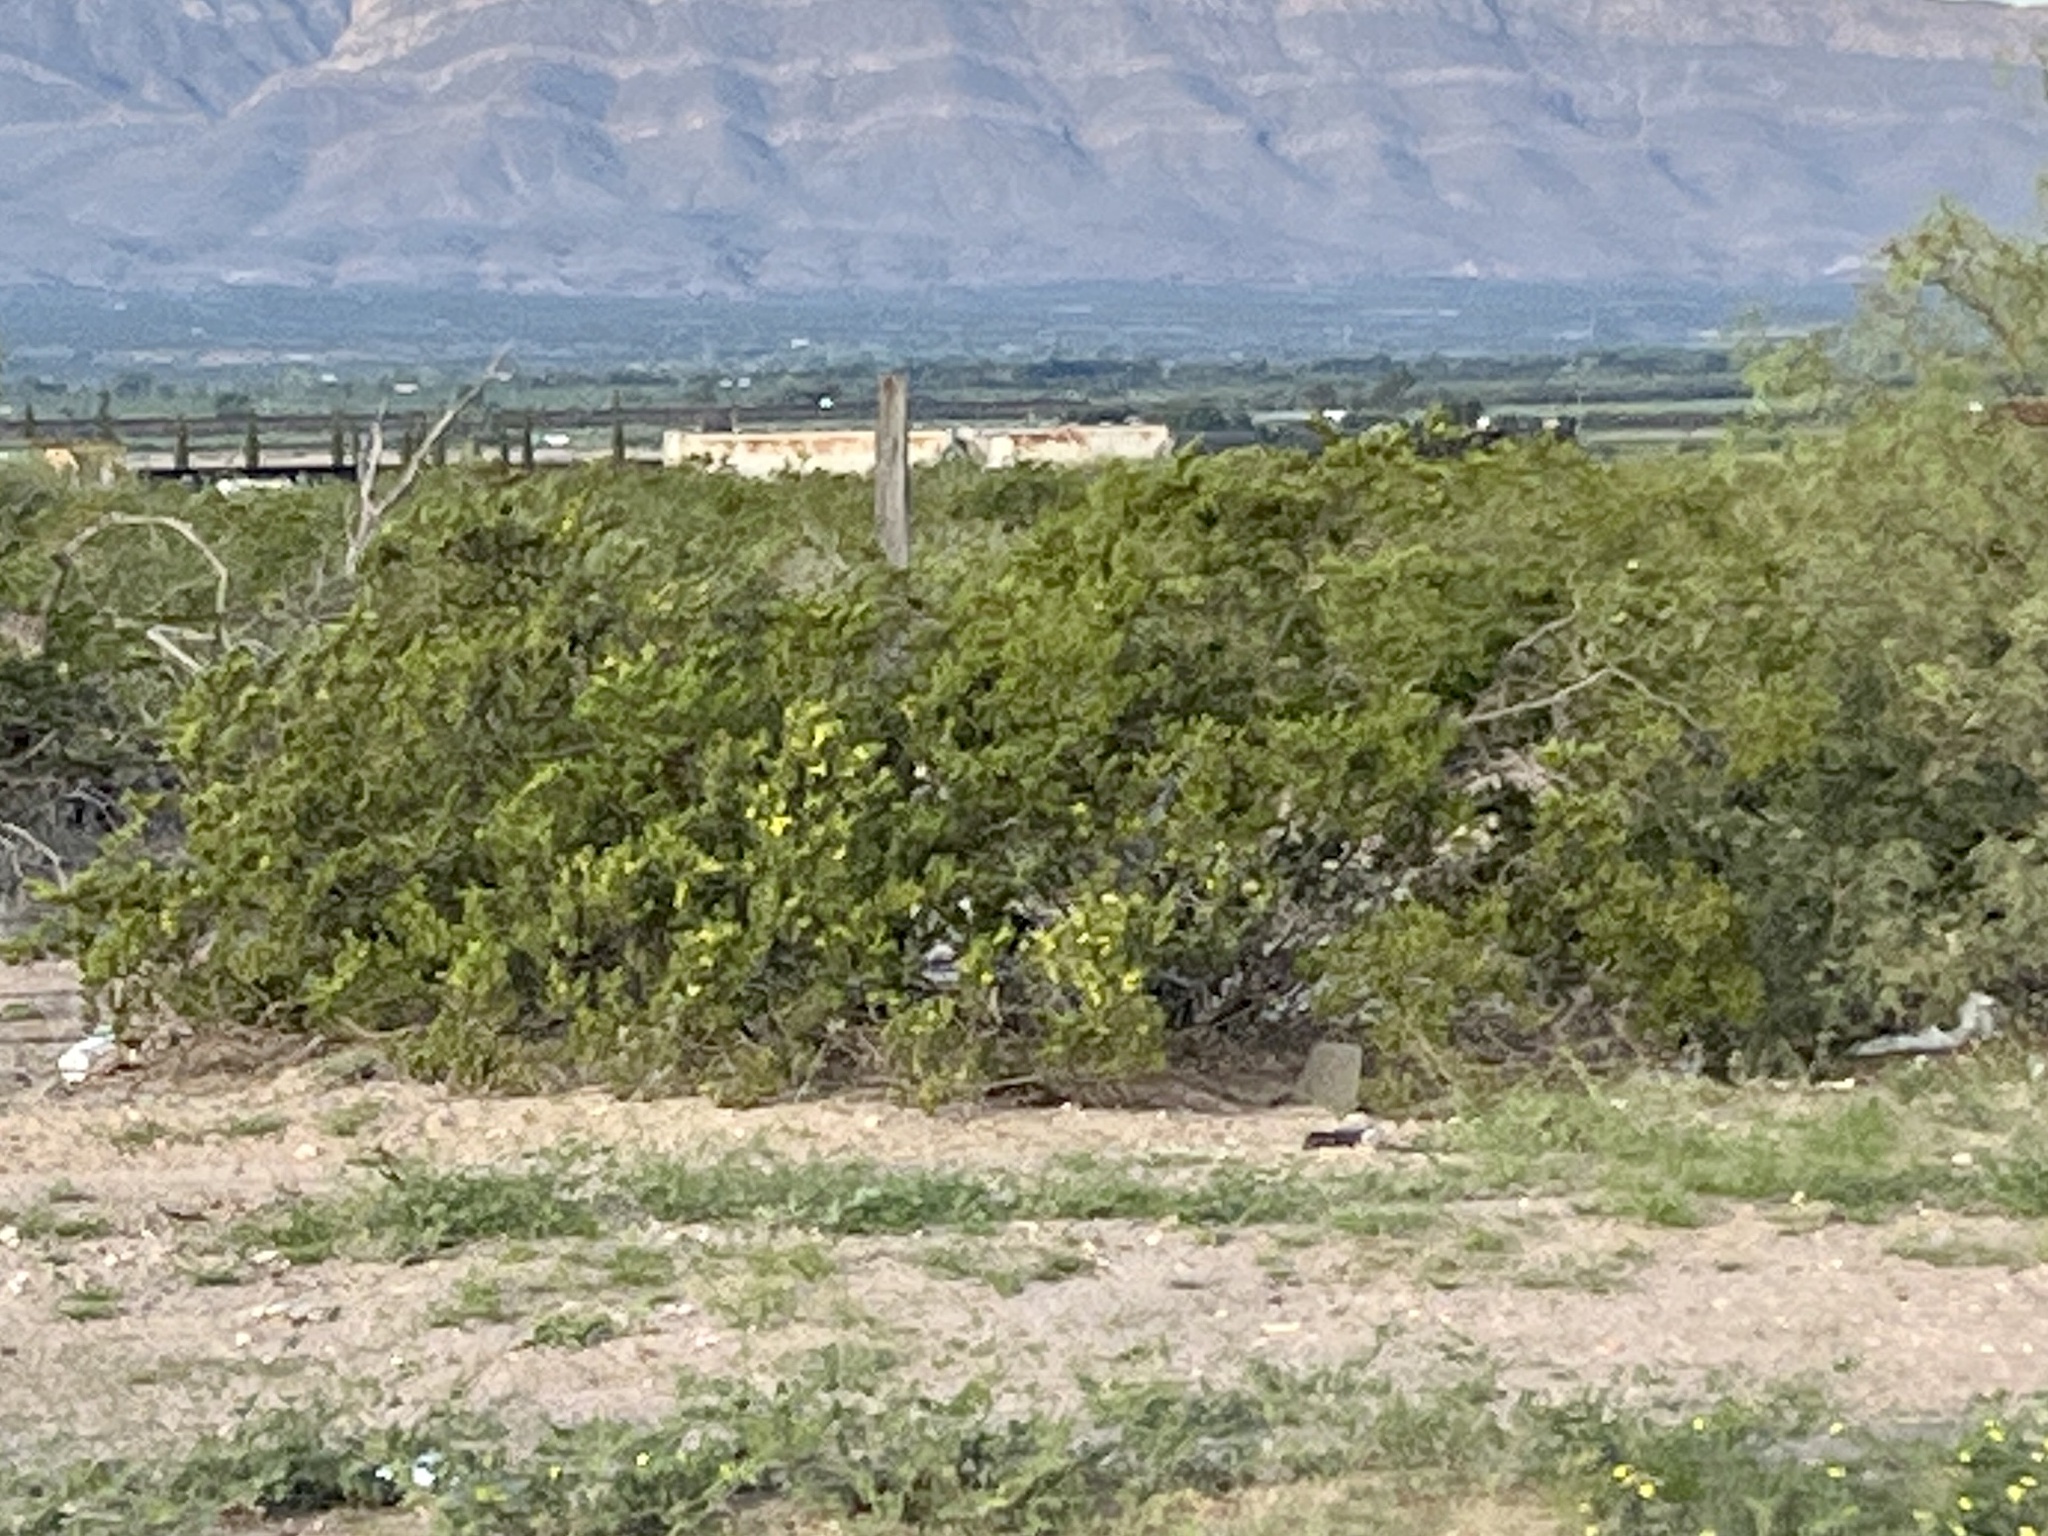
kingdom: Plantae
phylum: Tracheophyta
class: Magnoliopsida
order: Zygophyllales
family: Zygophyllaceae
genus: Larrea
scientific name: Larrea tridentata
